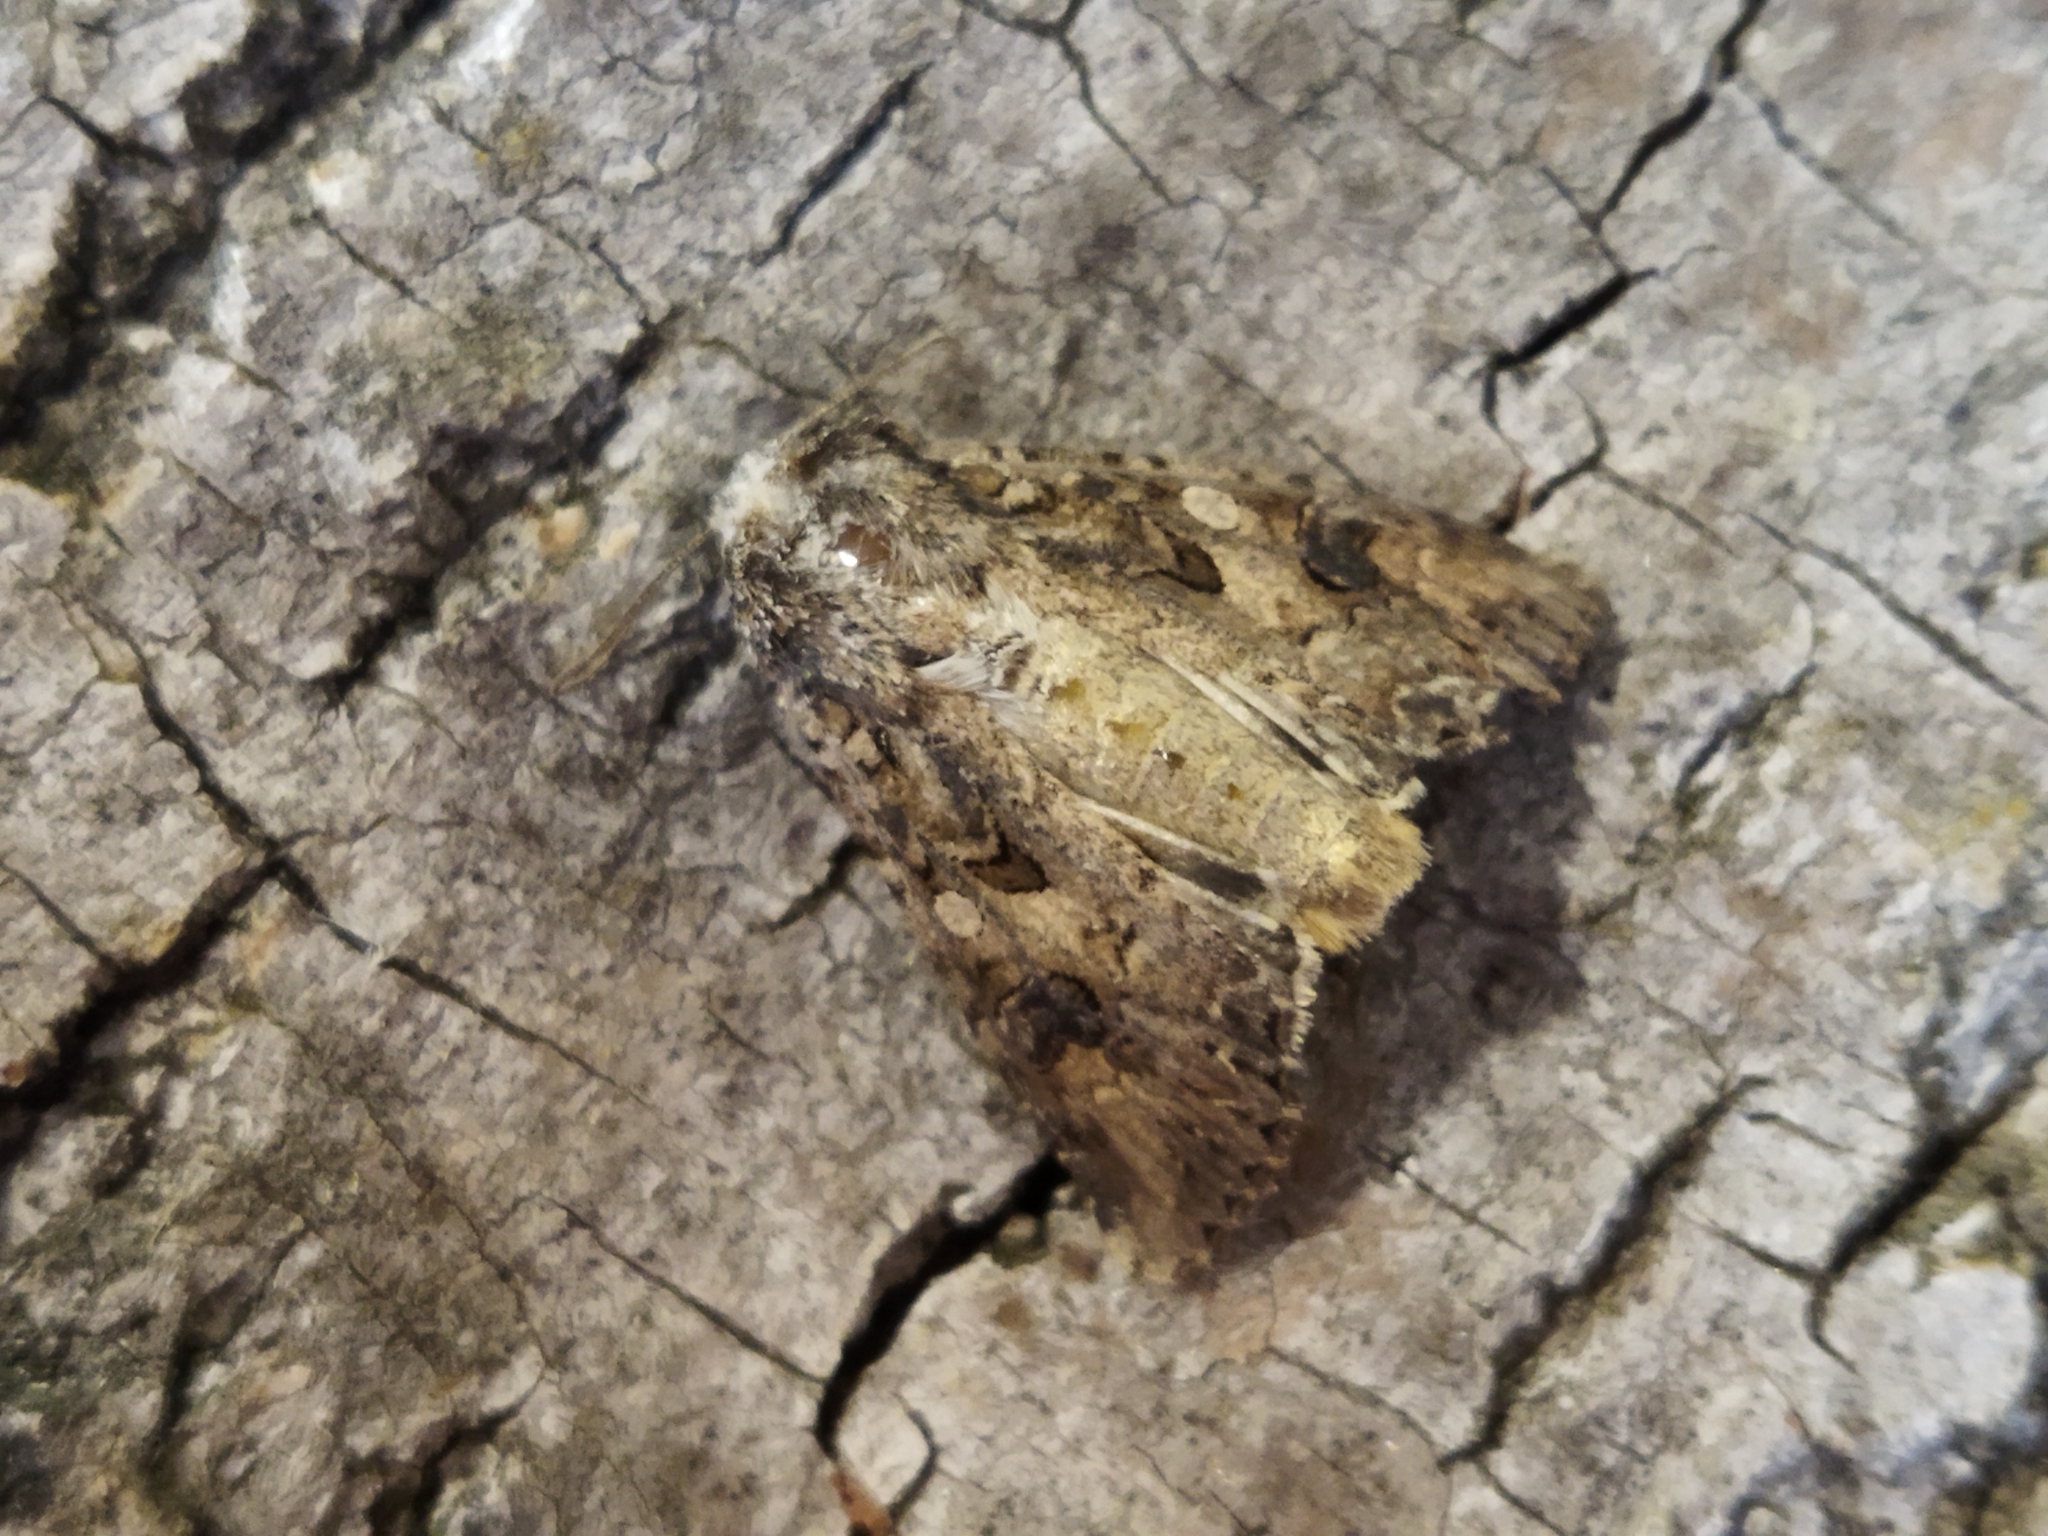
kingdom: Animalia
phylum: Arthropoda
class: Insecta
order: Lepidoptera
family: Noctuidae
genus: Anarta
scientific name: Anarta trifolii
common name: Clover cutworm moth
